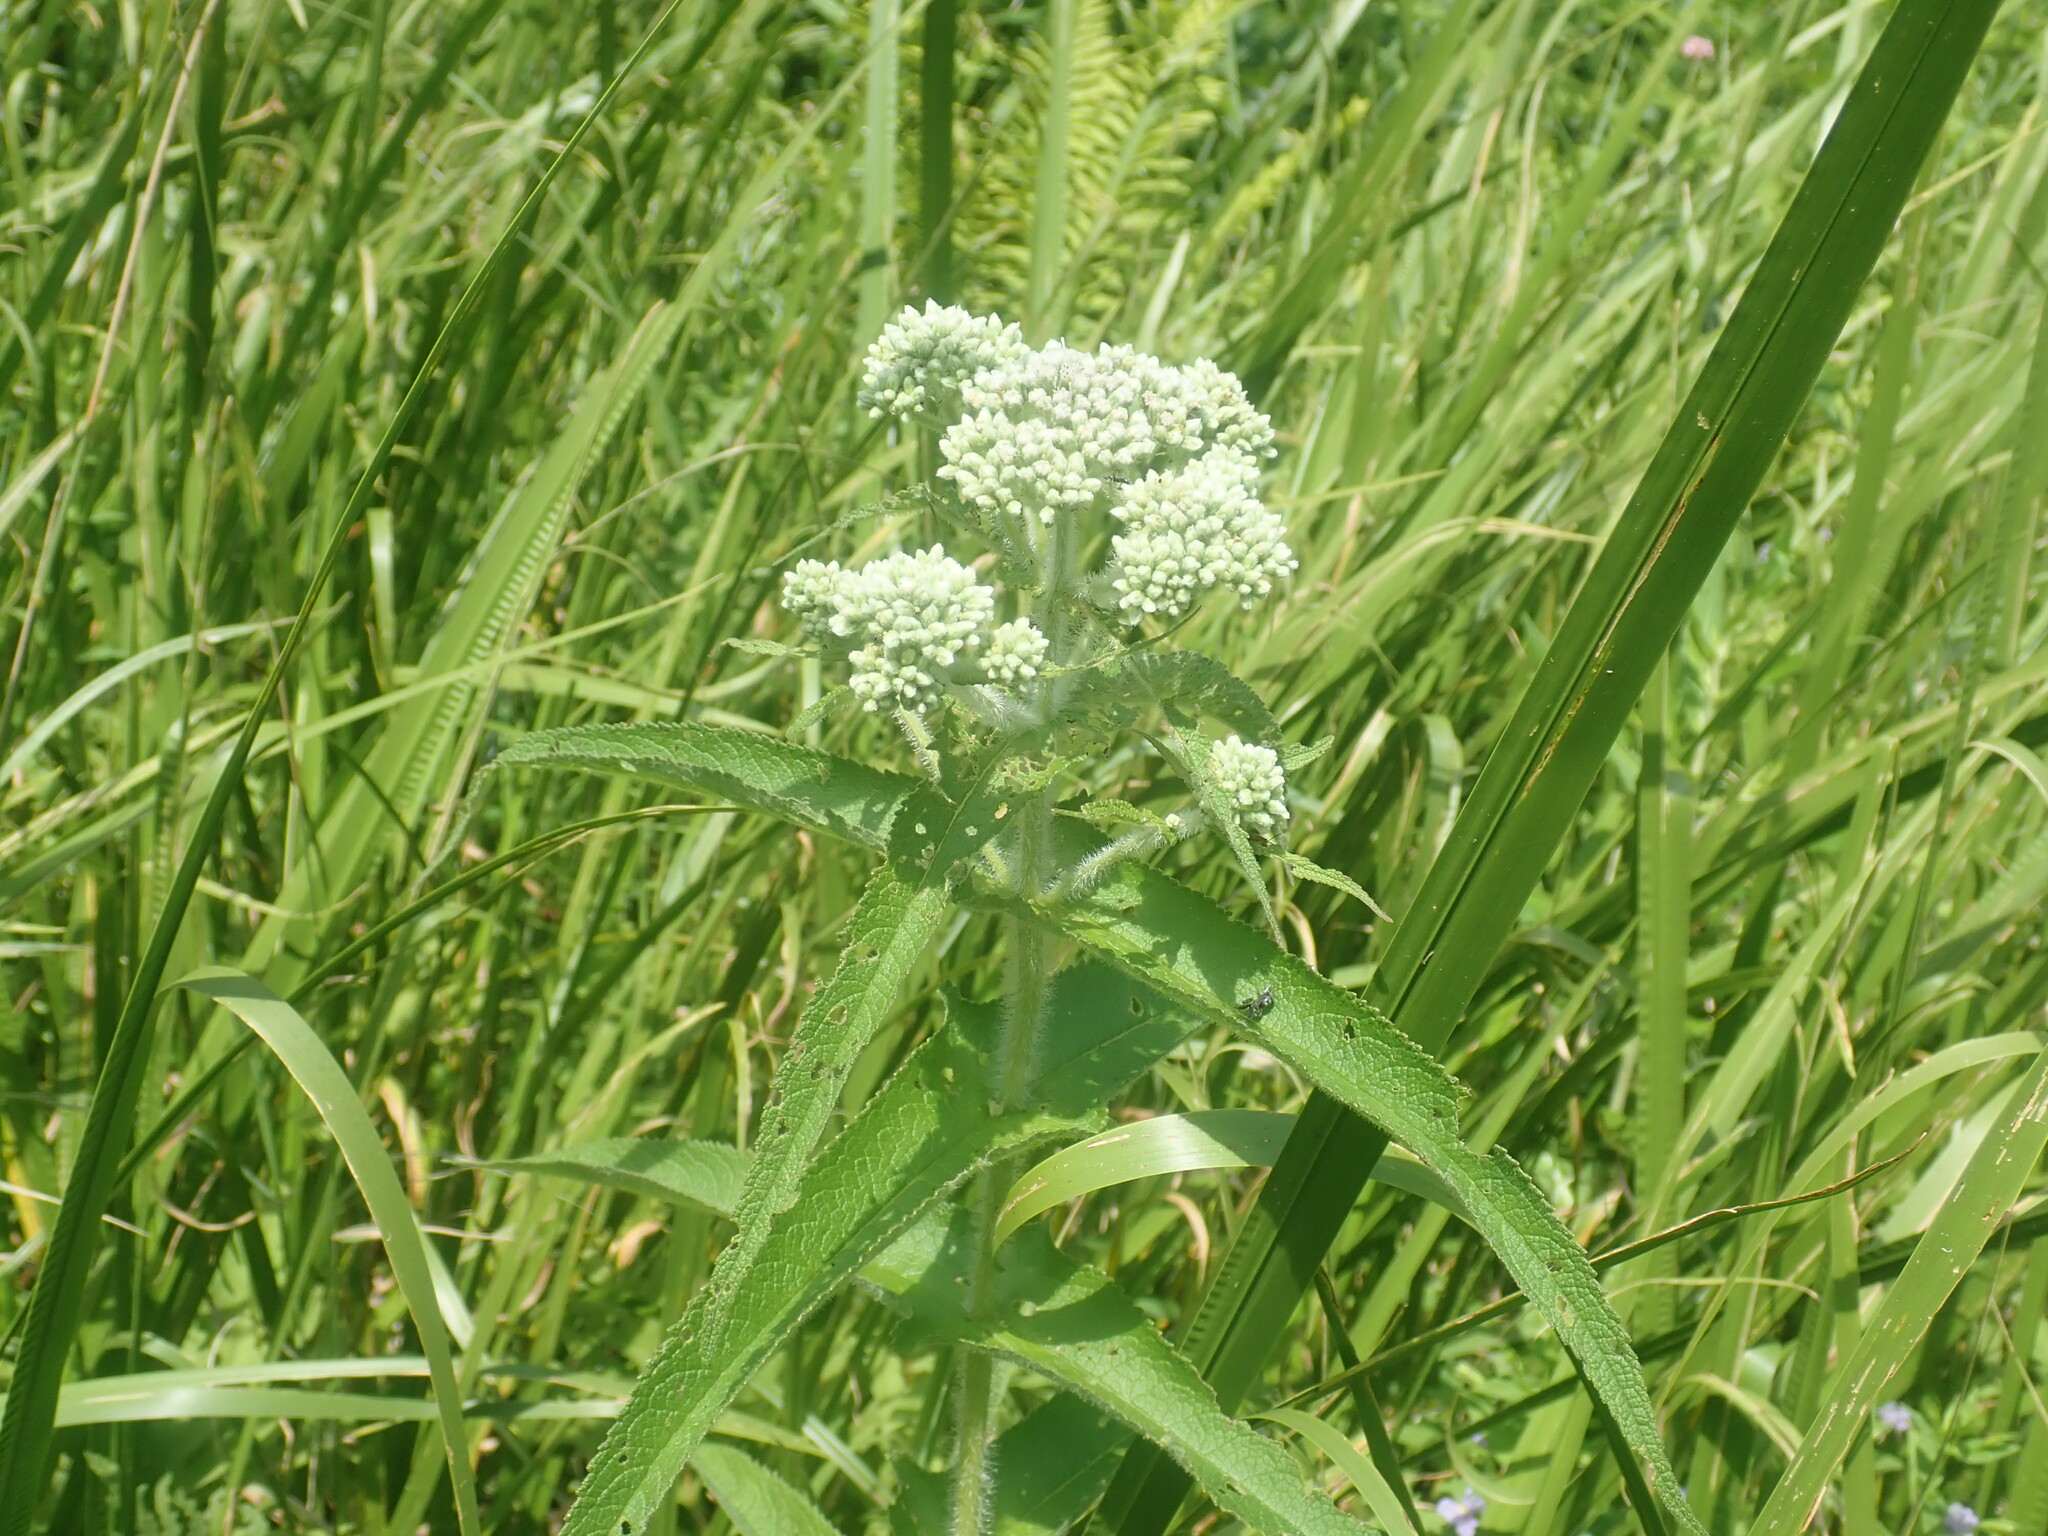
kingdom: Plantae
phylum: Tracheophyta
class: Magnoliopsida
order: Asterales
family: Asteraceae
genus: Eupatorium
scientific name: Eupatorium perfoliatum
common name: Boneset
